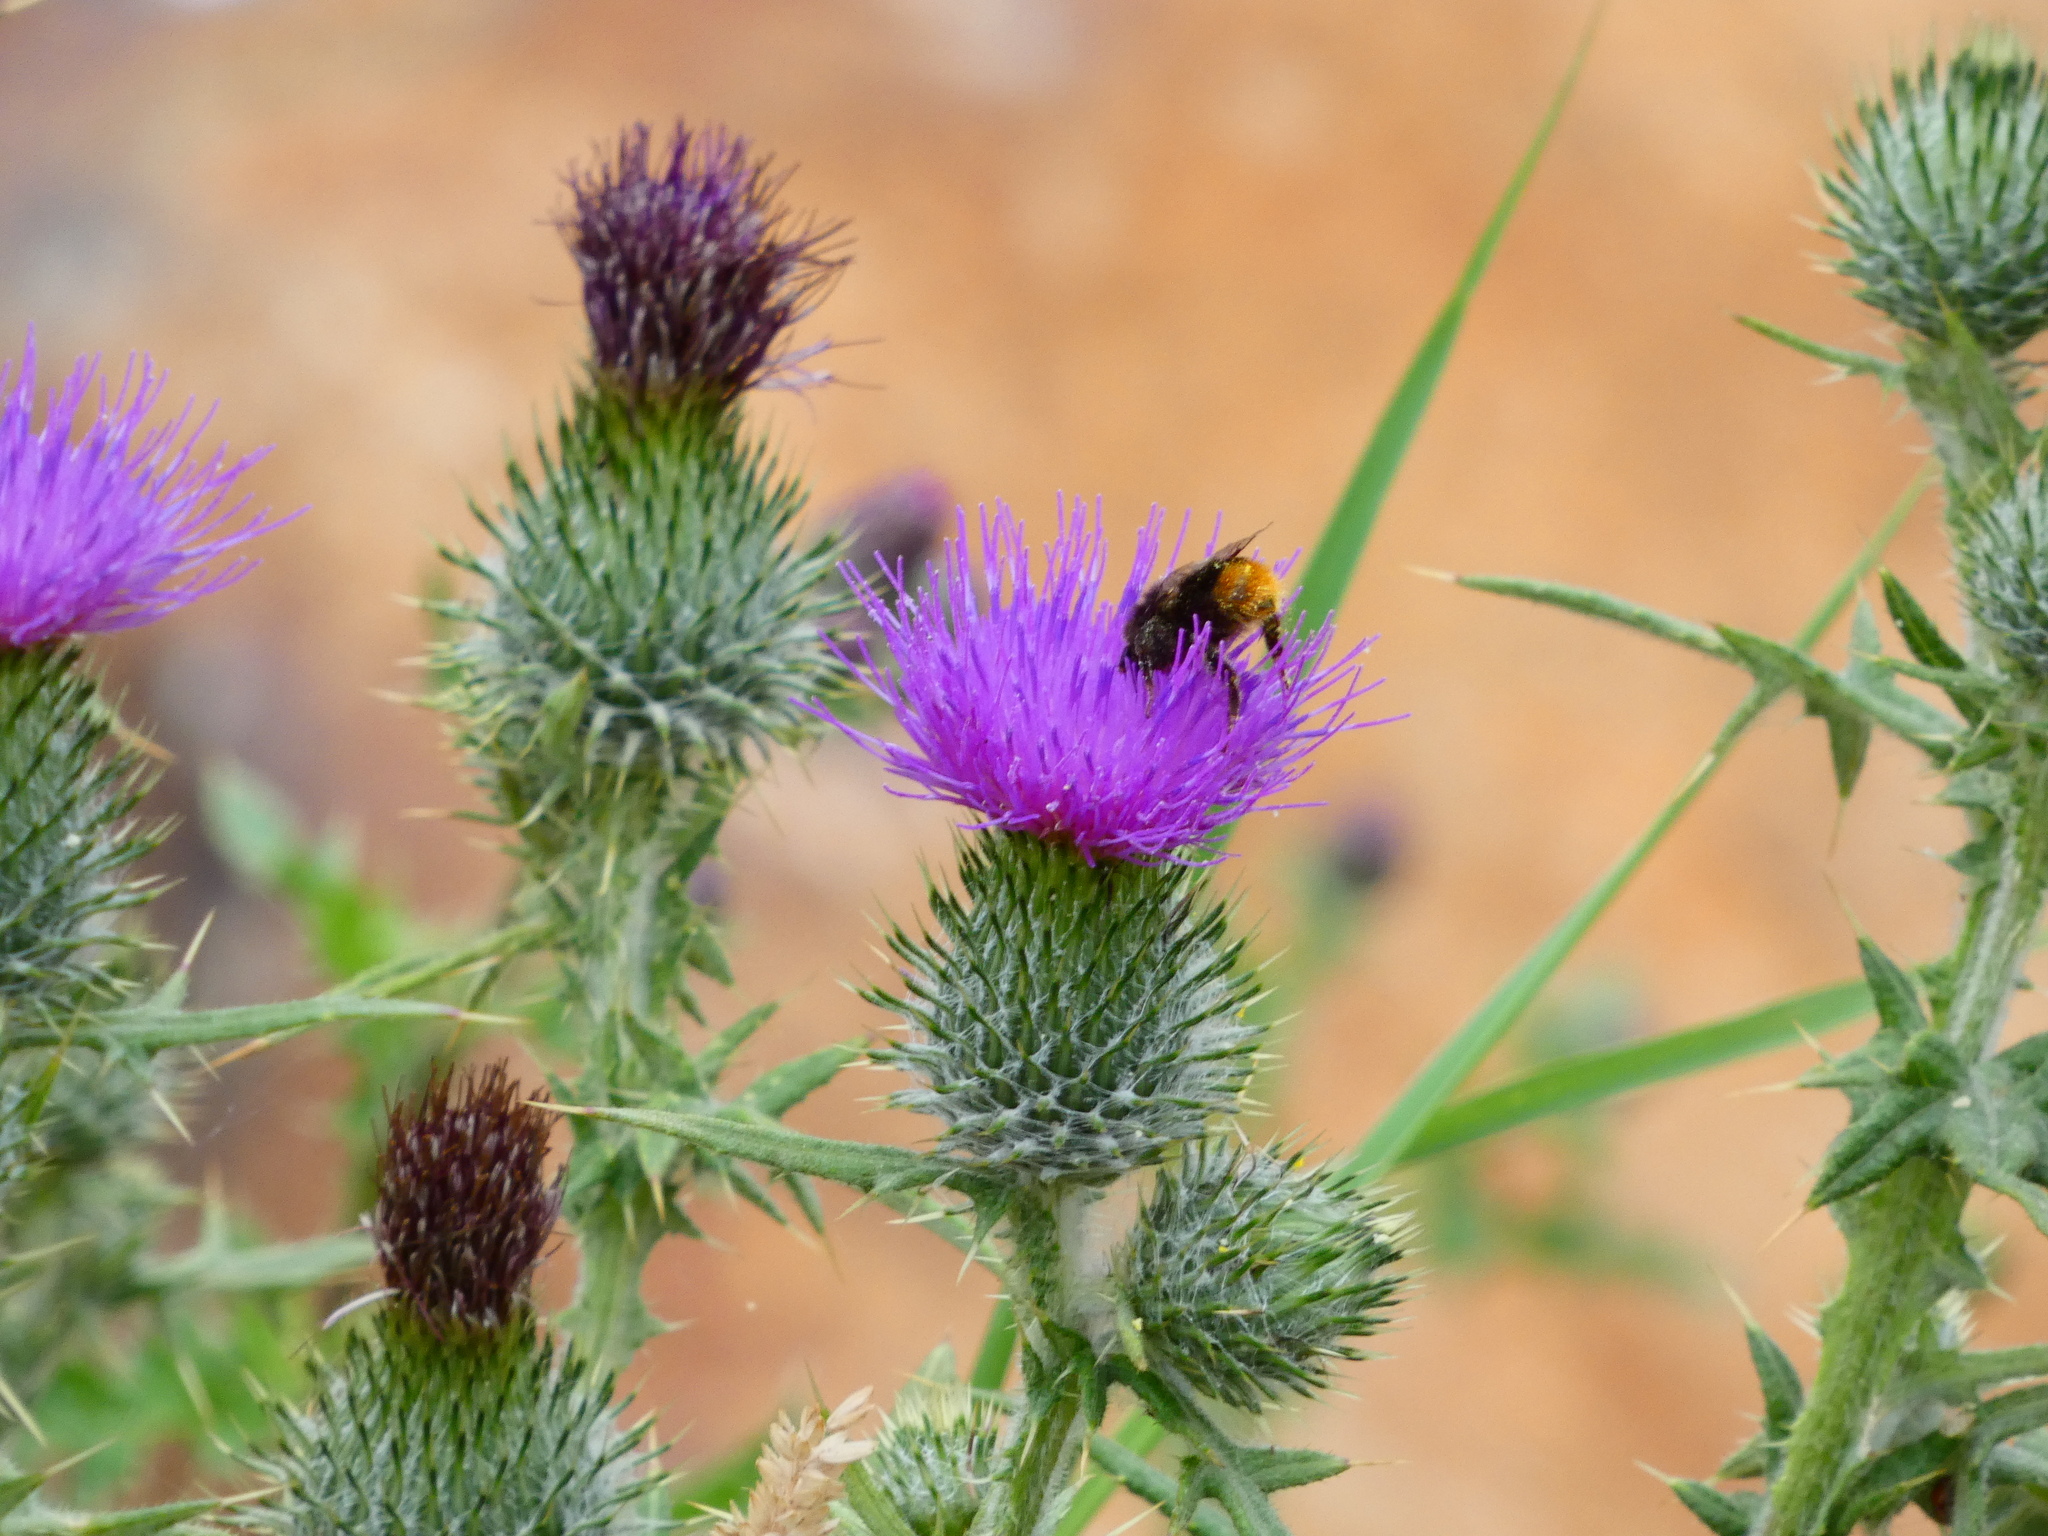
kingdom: Animalia
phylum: Arthropoda
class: Insecta
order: Hymenoptera
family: Apidae
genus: Bombus
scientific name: Bombus lapidarius
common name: Large red-tailed humble-bee
